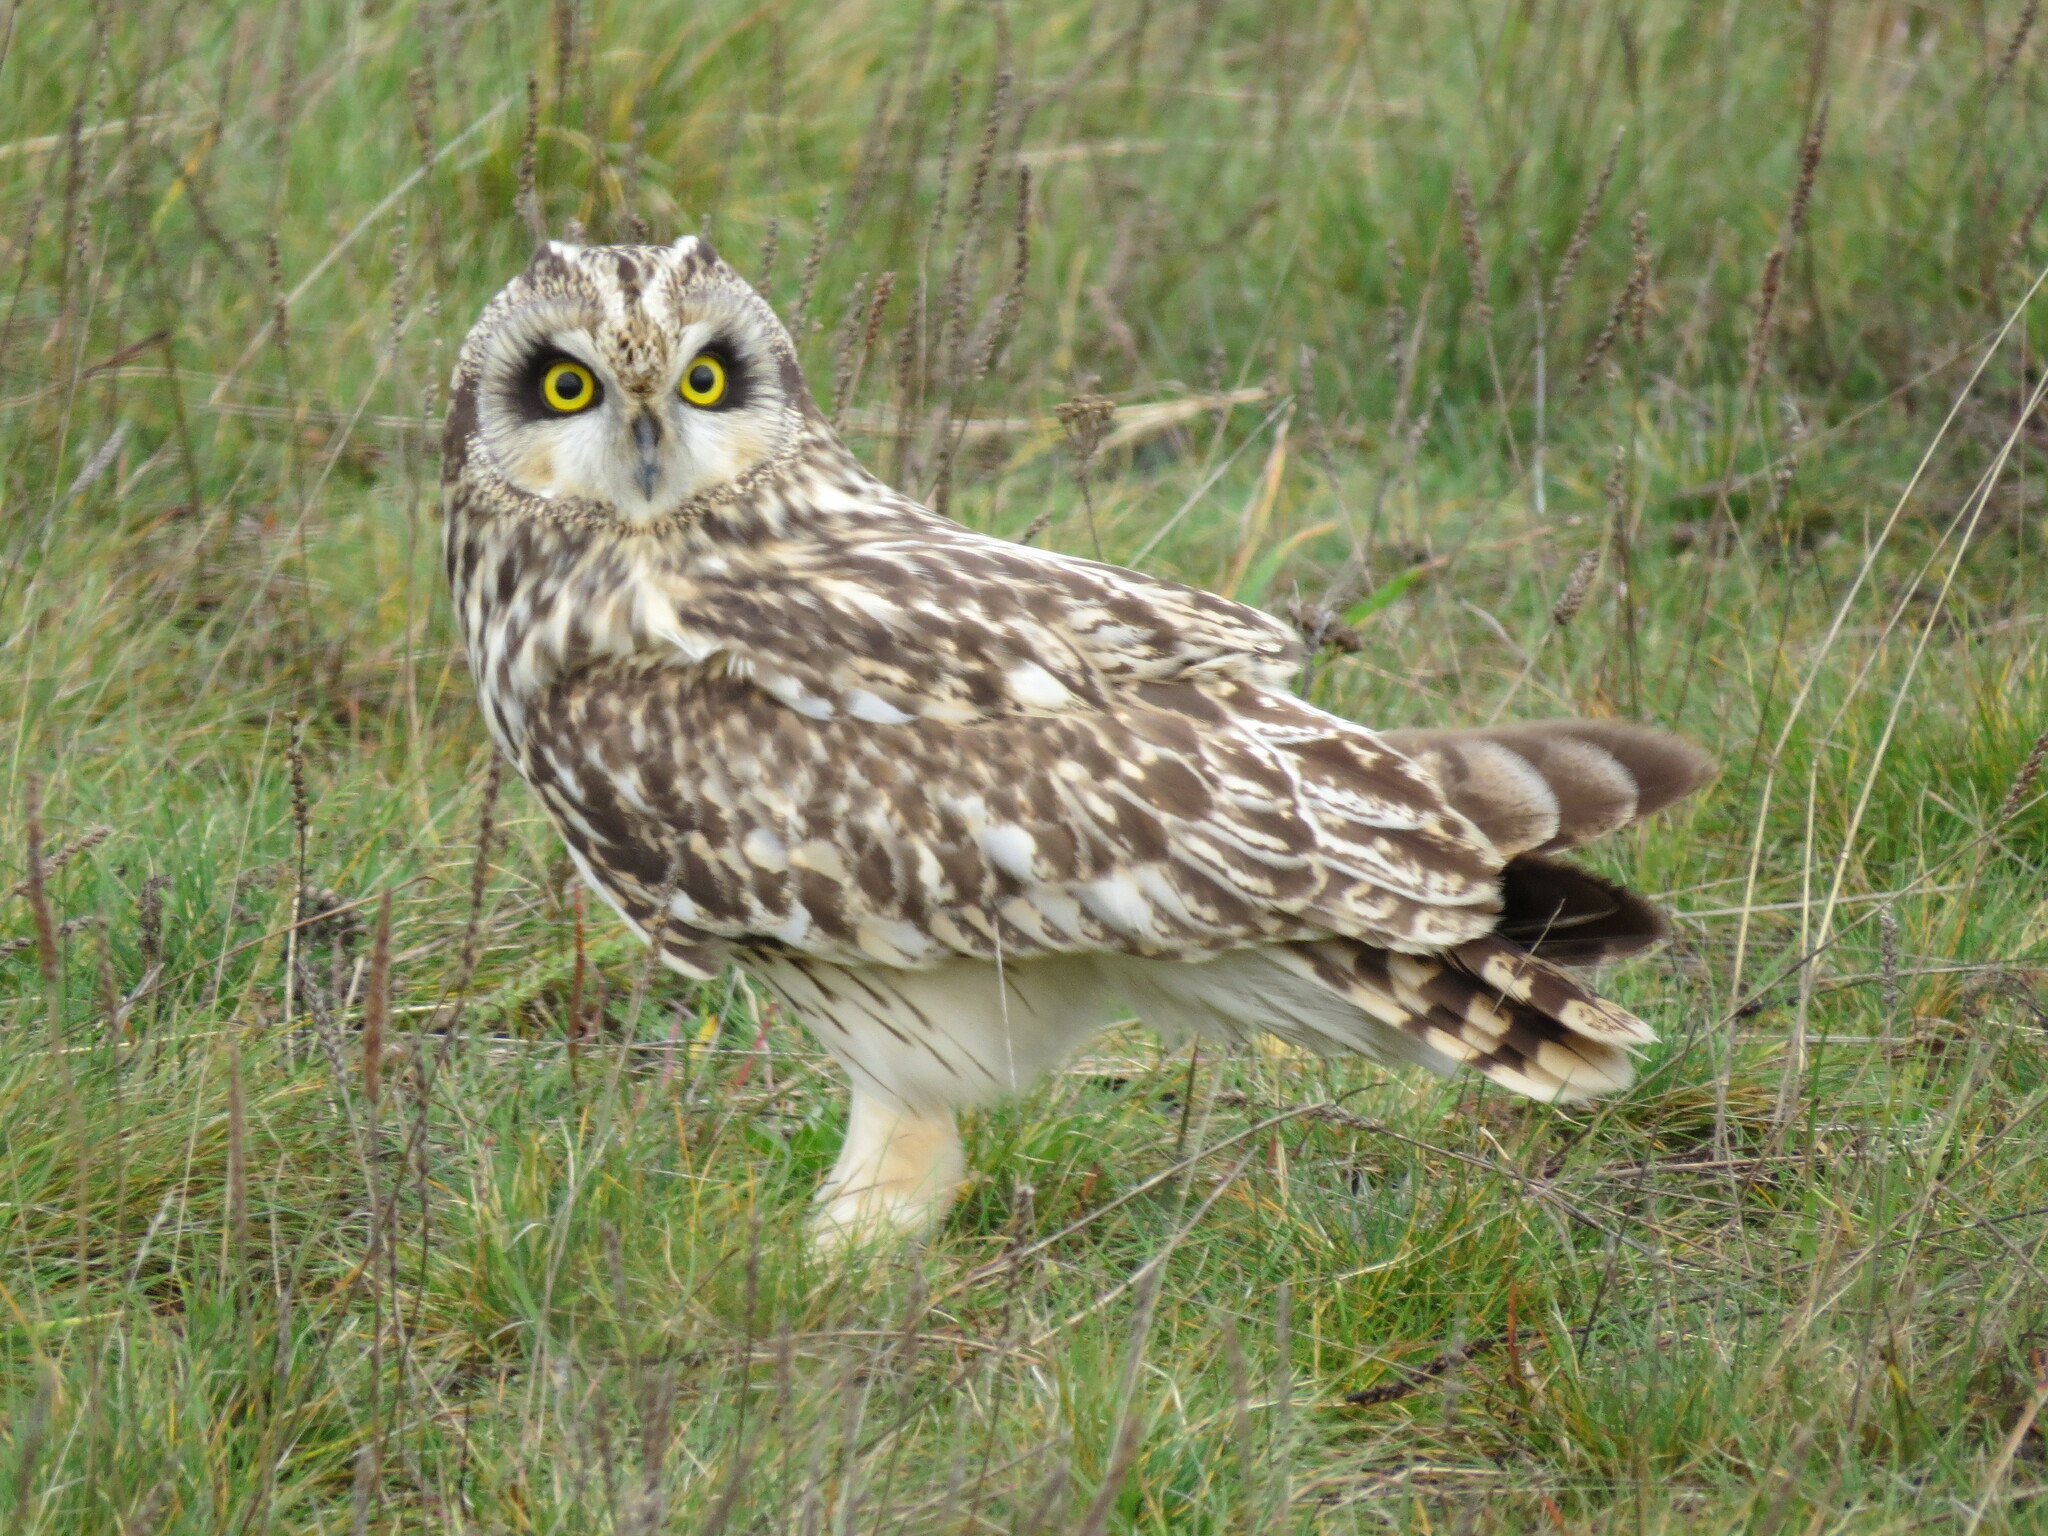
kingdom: Animalia
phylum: Chordata
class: Aves
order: Strigiformes
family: Strigidae
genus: Asio
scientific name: Asio flammeus
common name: Short-eared owl
